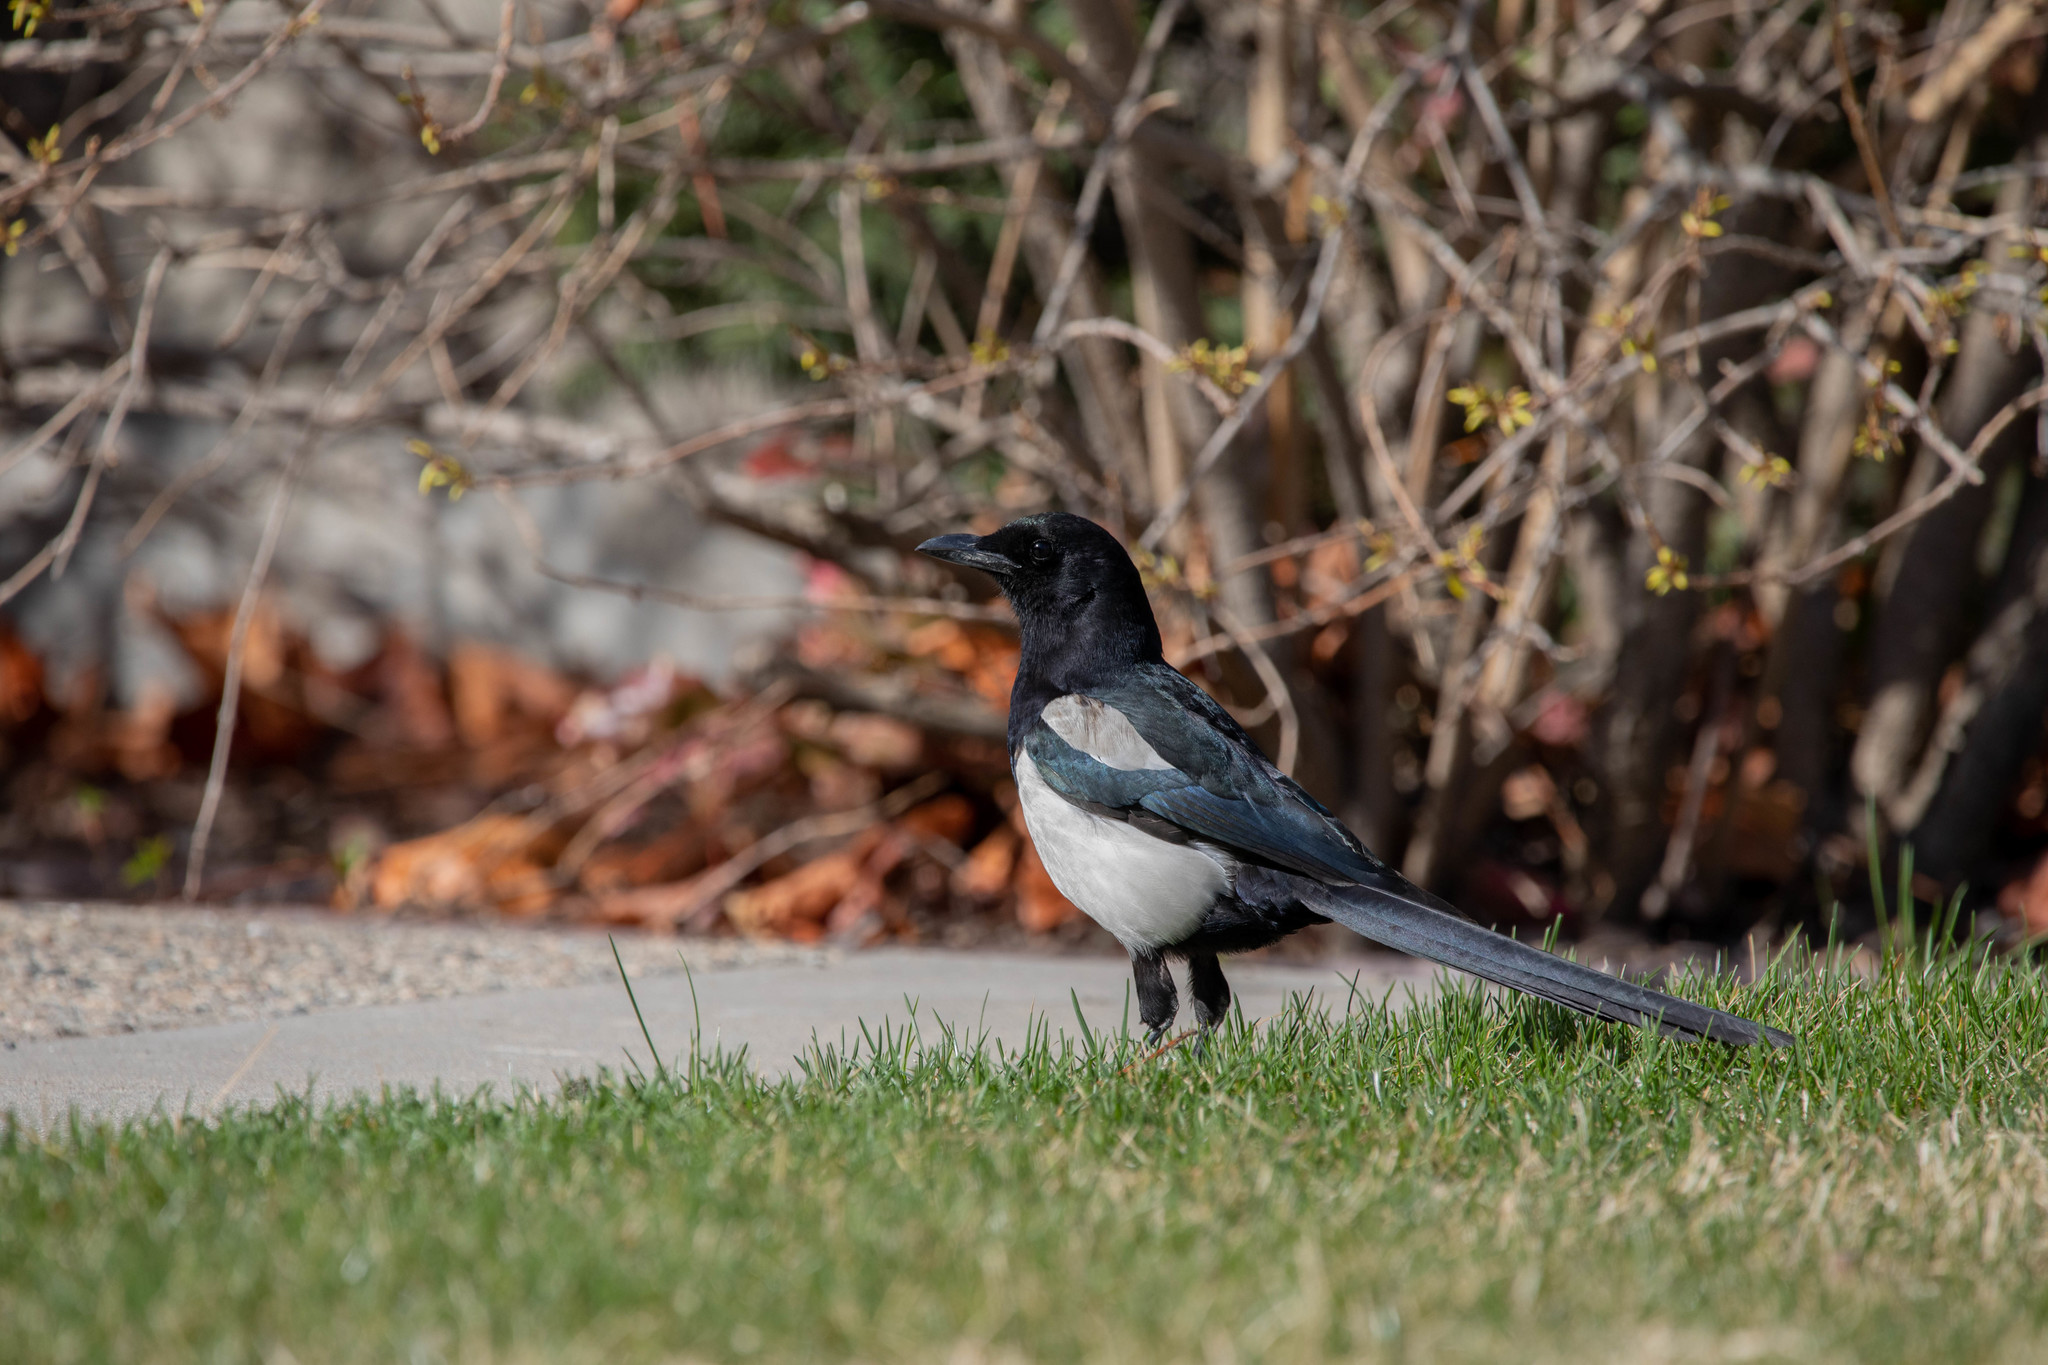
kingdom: Animalia
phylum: Chordata
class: Aves
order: Passeriformes
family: Corvidae
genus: Pica
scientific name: Pica hudsonia
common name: Black-billed magpie
